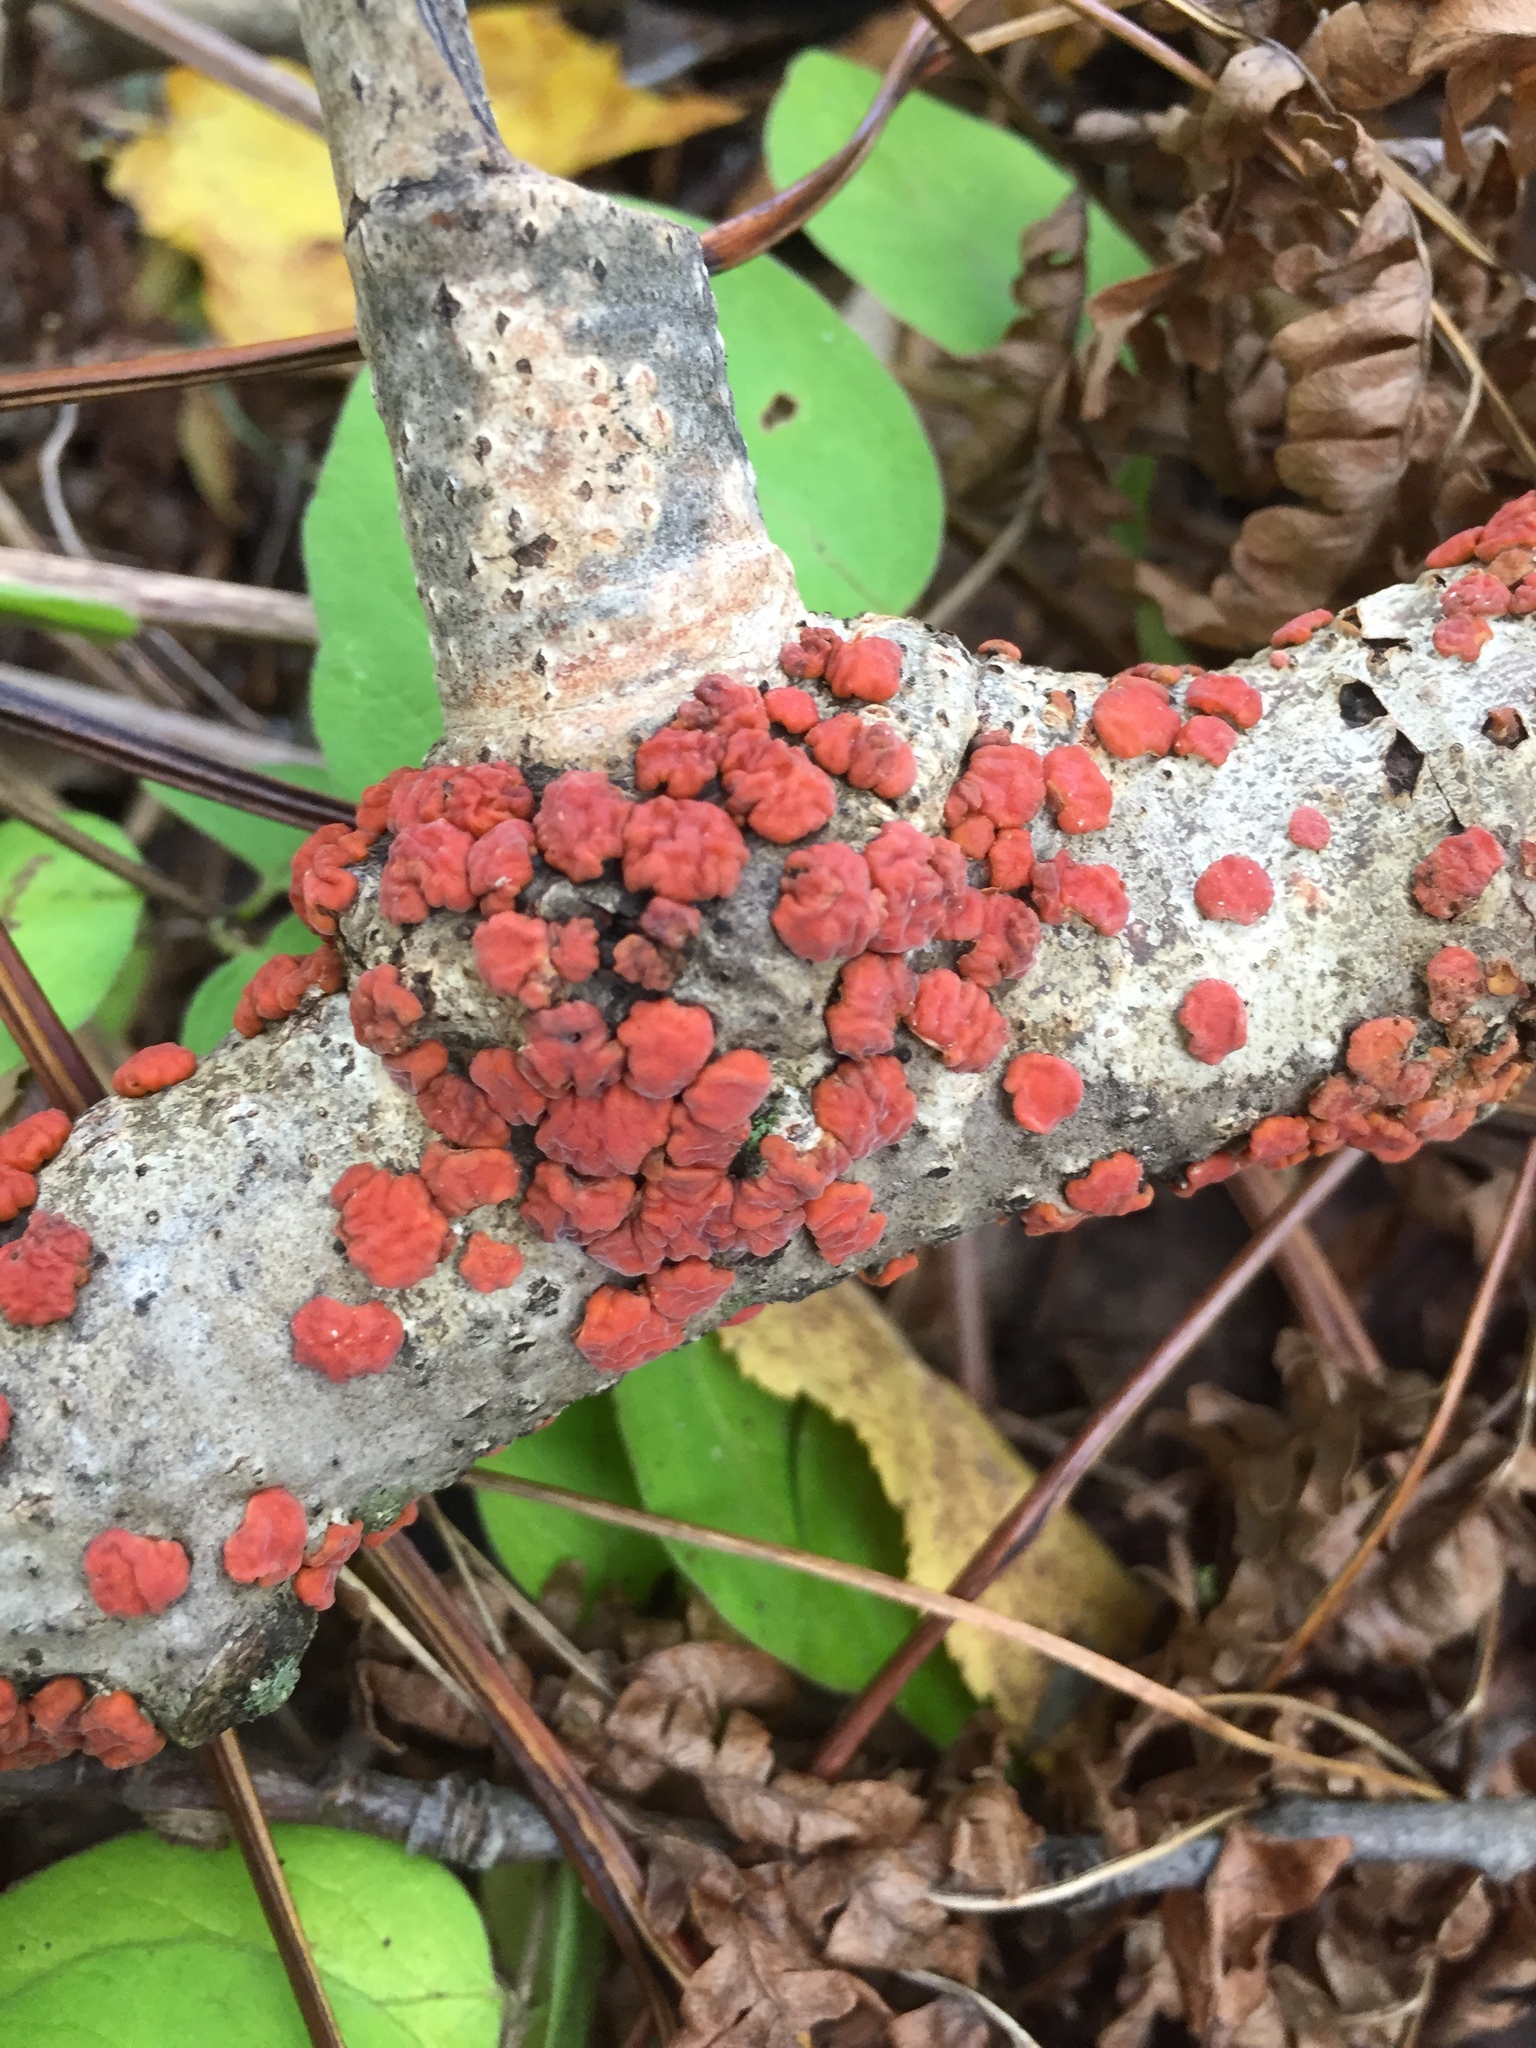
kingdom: Fungi
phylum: Basidiomycota
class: Agaricomycetes
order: Russulales
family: Peniophoraceae
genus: Peniophora
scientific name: Peniophora rufa
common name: Red tree brain fungus
